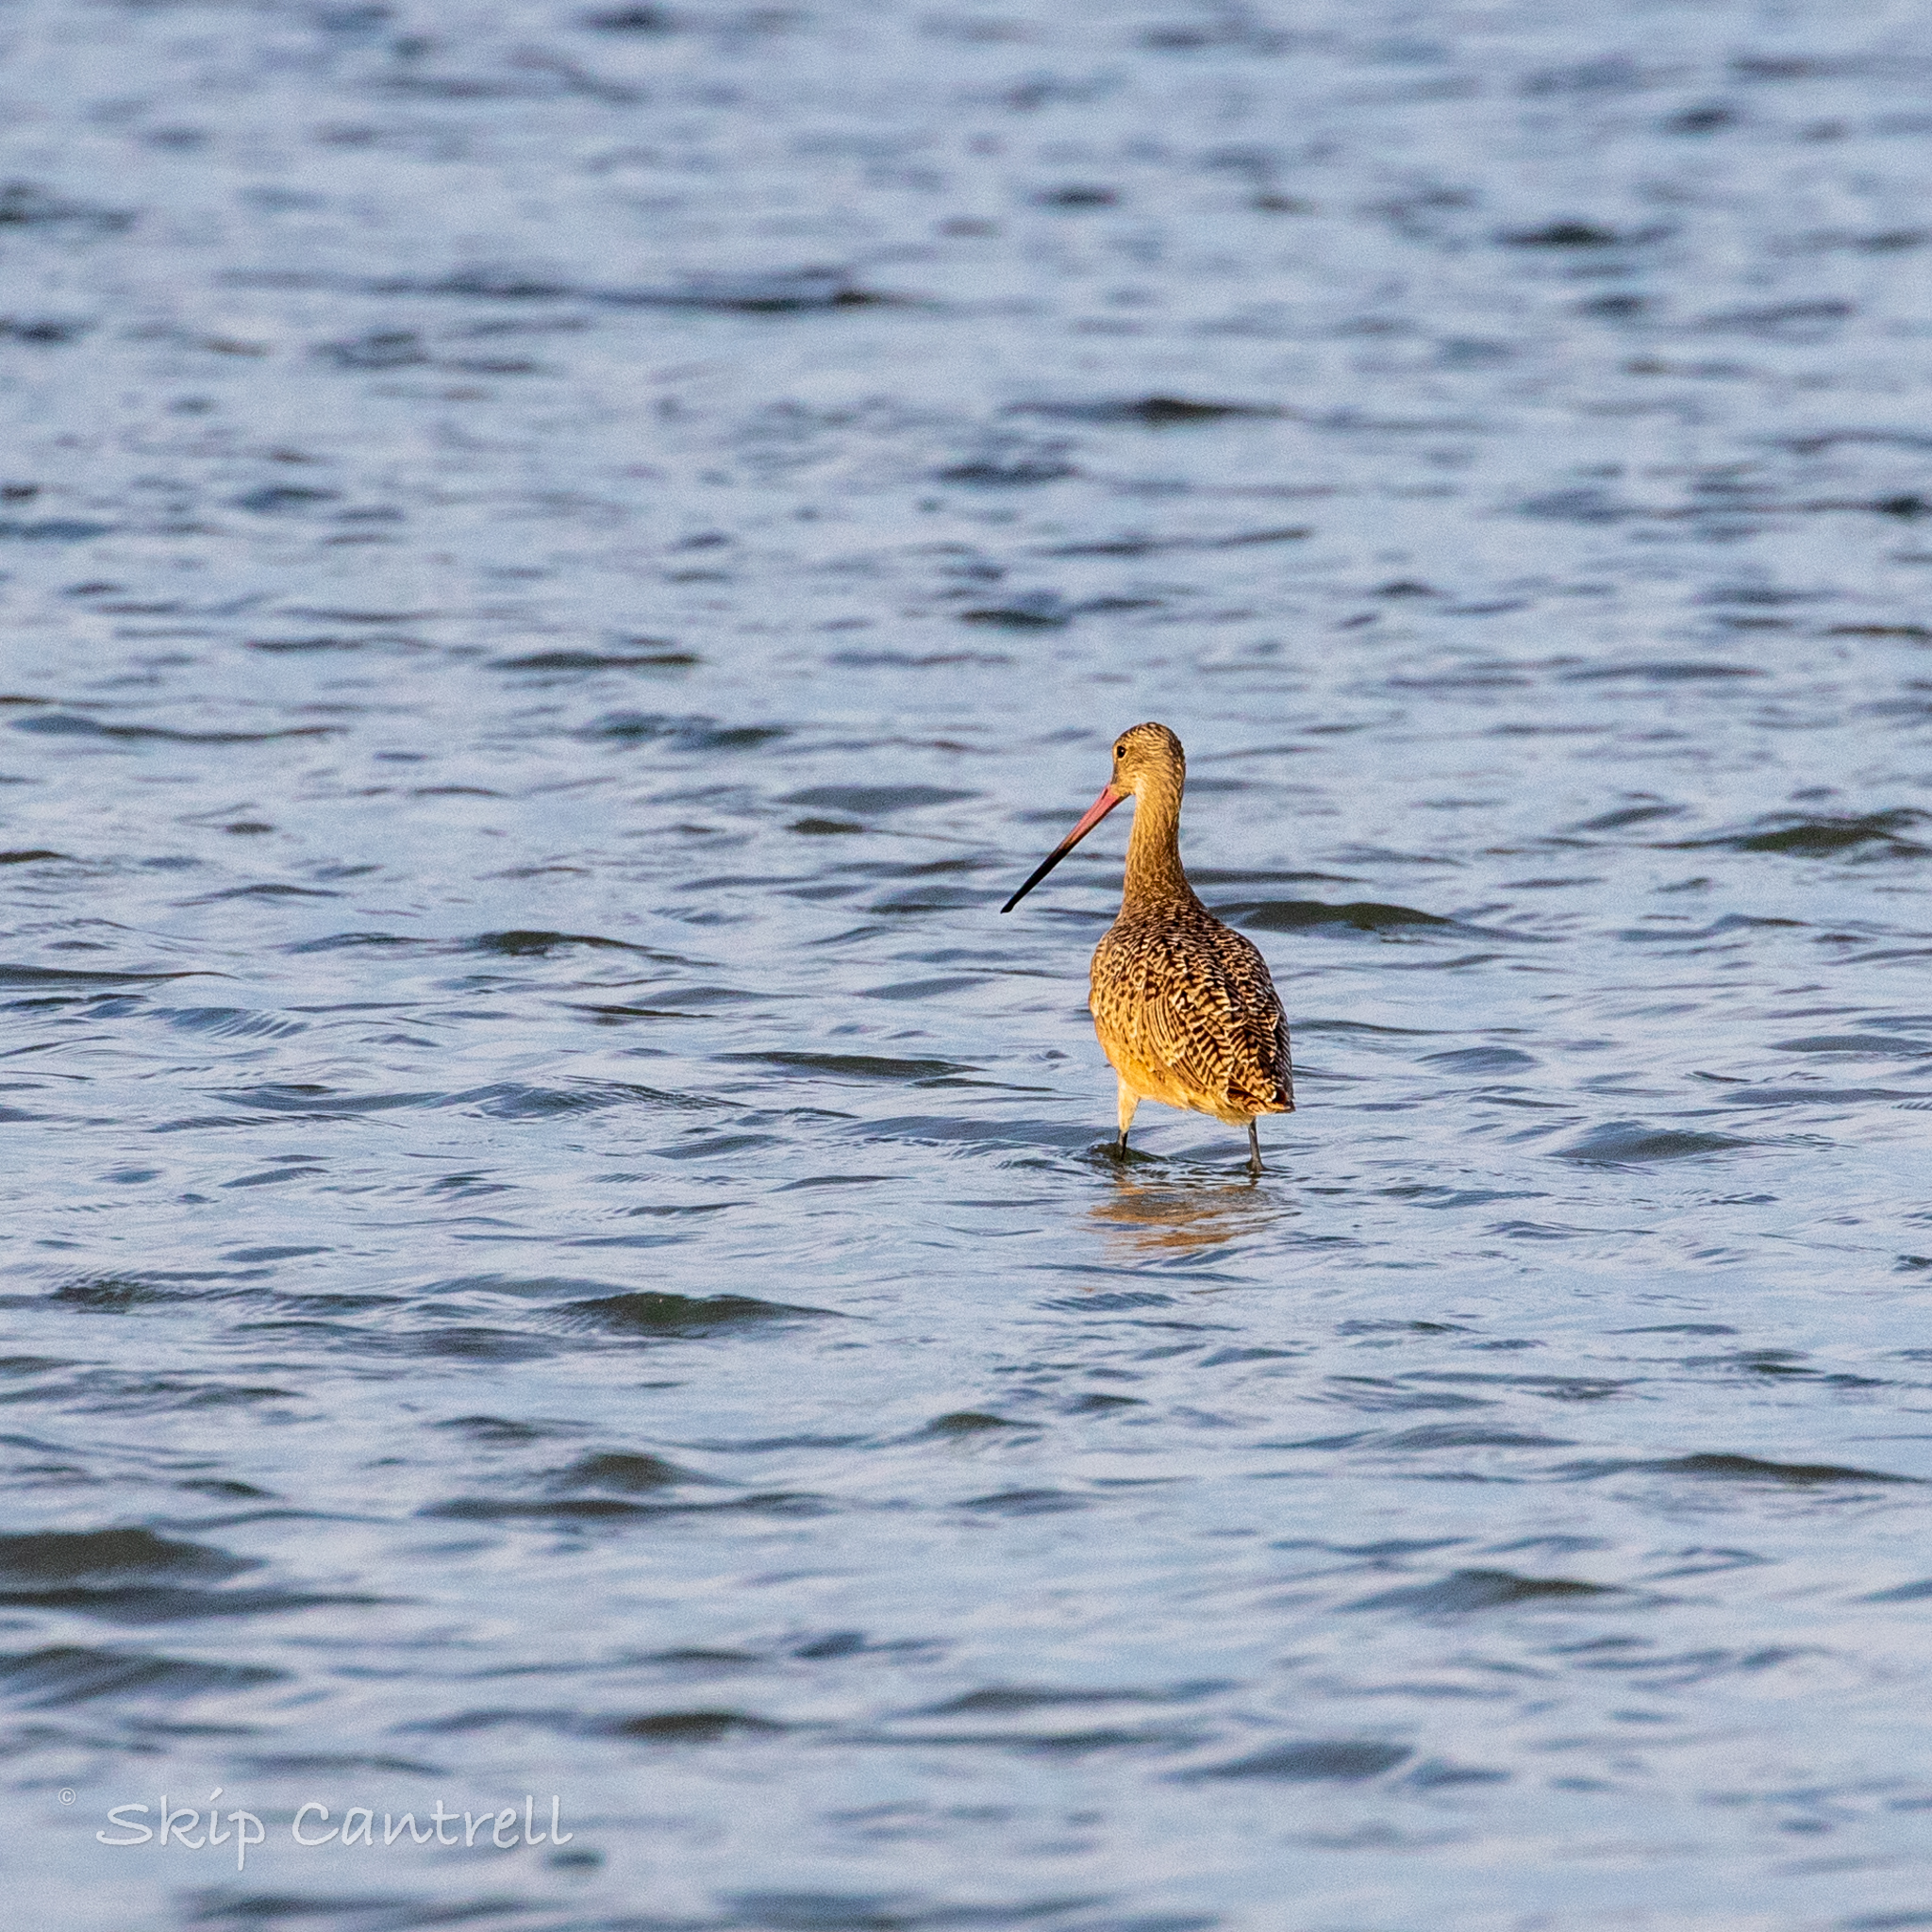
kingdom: Animalia
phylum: Chordata
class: Aves
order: Charadriiformes
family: Scolopacidae
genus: Limosa
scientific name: Limosa fedoa
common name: Marbled godwit
